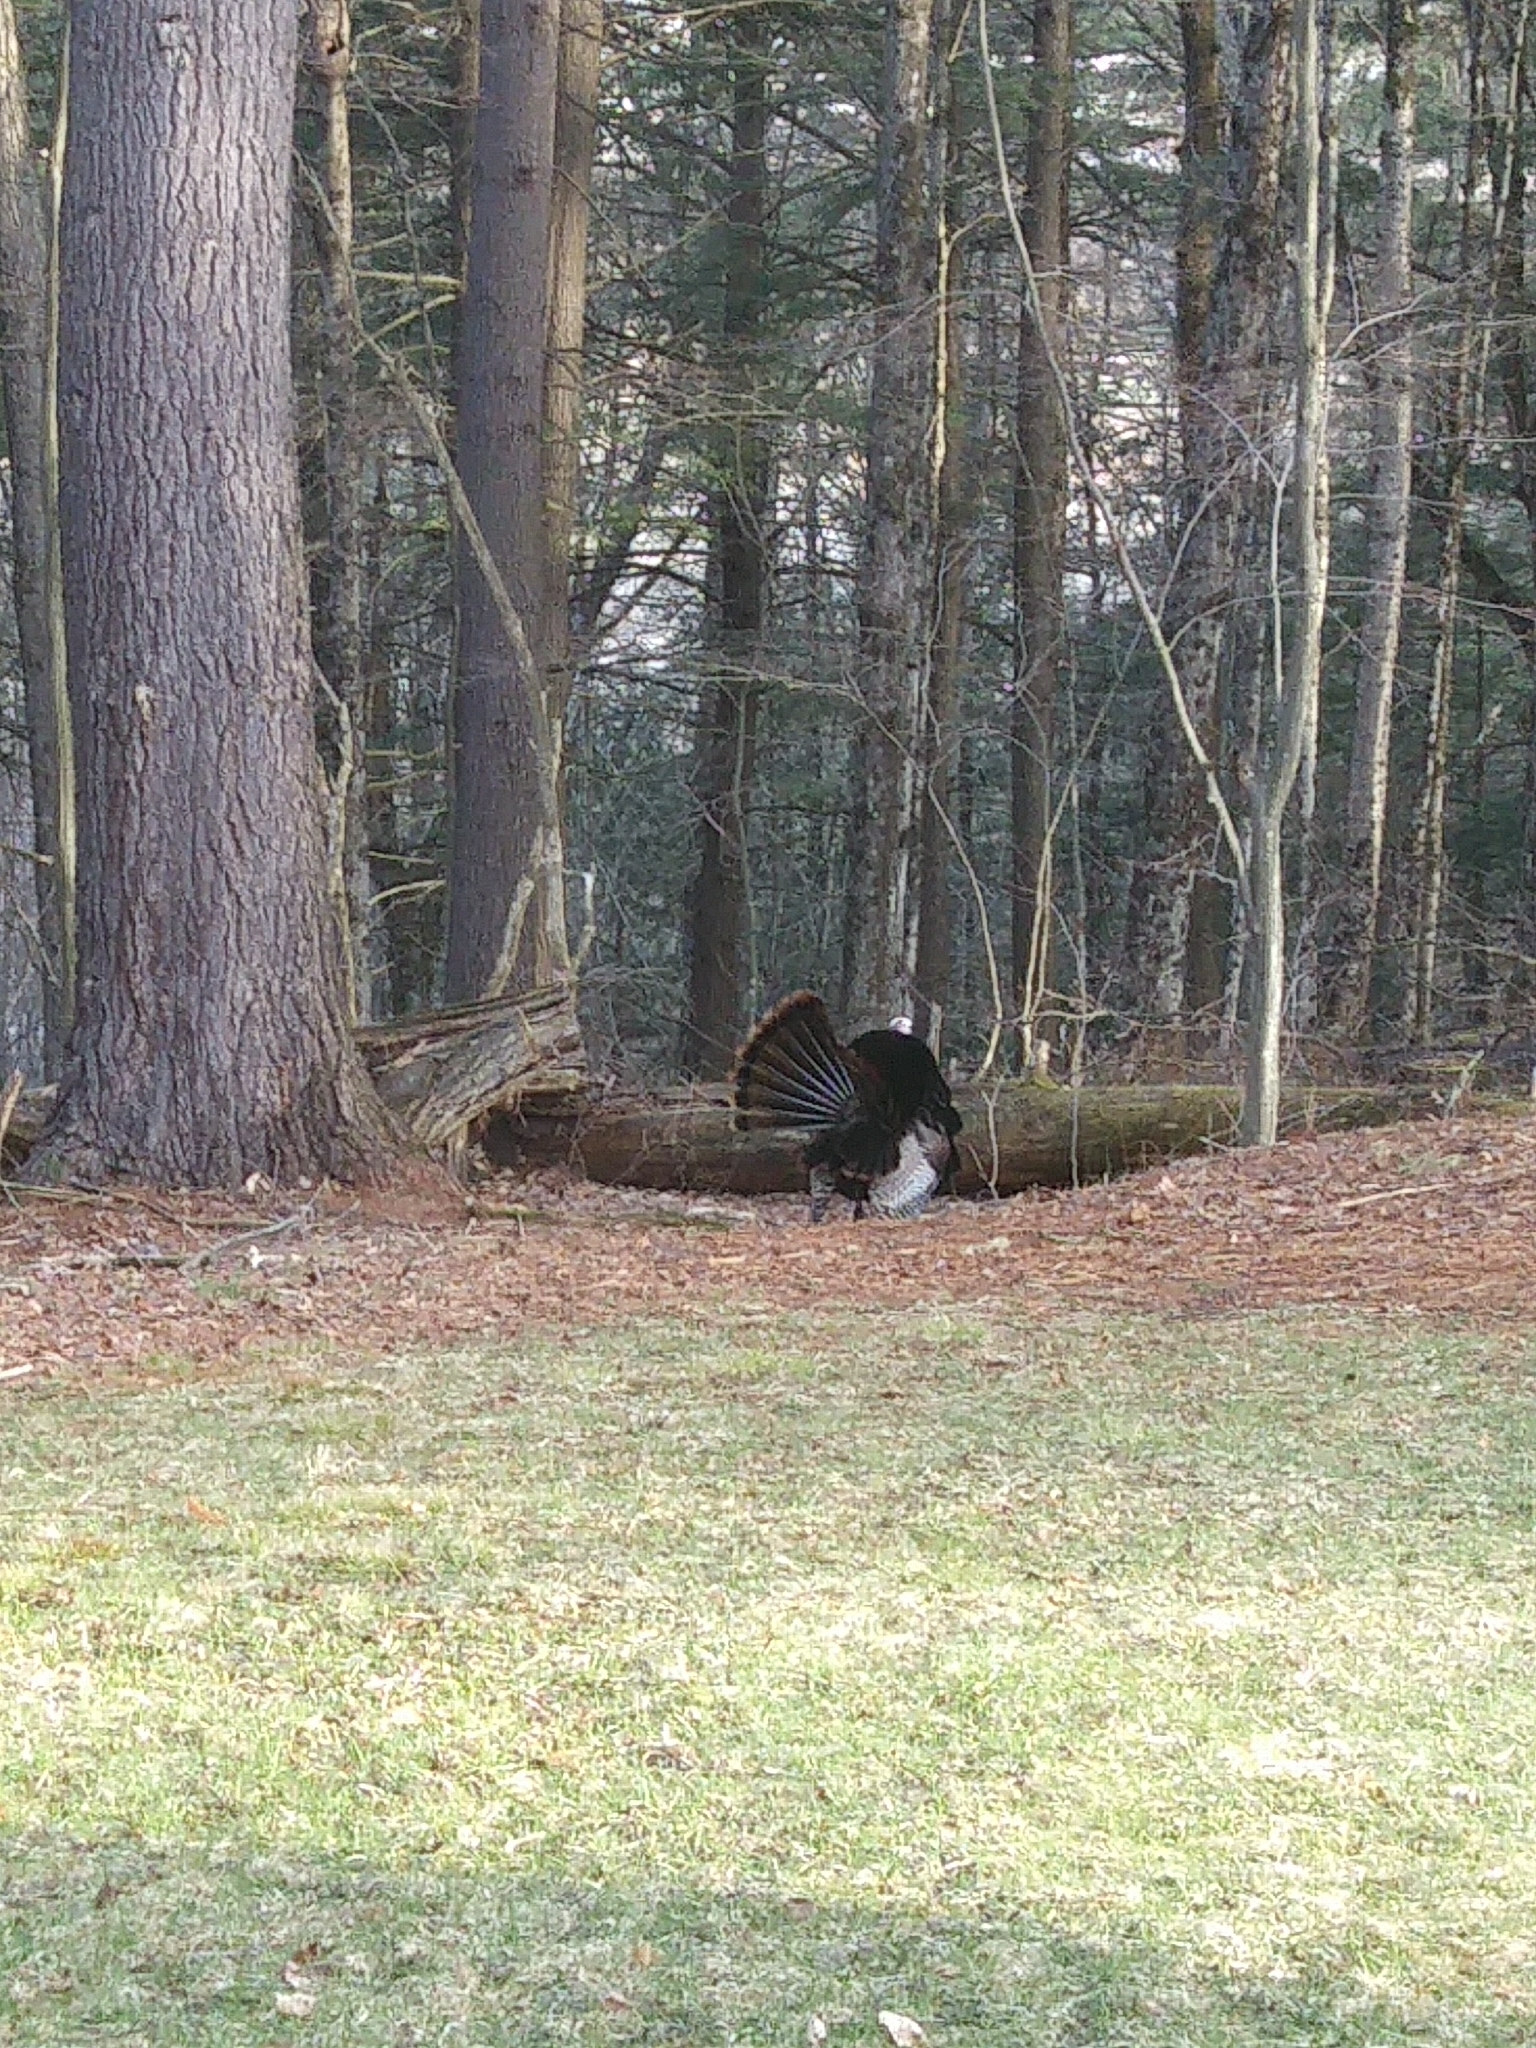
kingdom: Animalia
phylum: Chordata
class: Aves
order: Galliformes
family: Phasianidae
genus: Meleagris
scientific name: Meleagris gallopavo
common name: Wild turkey
